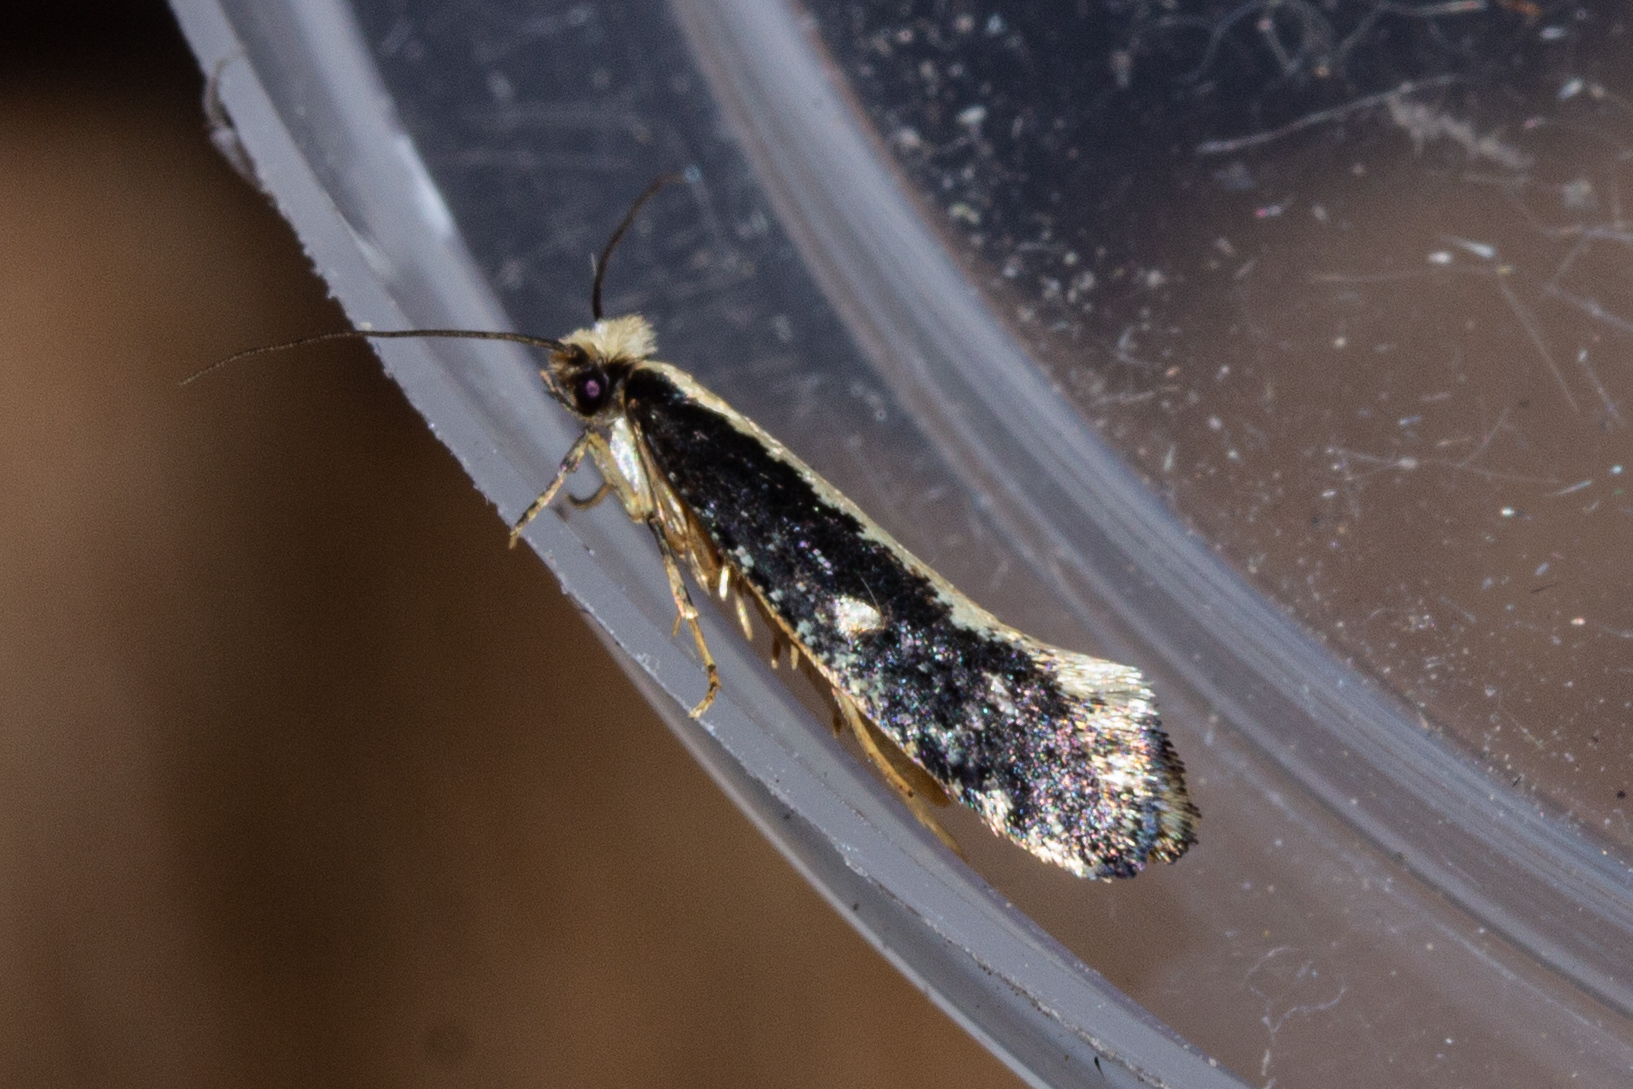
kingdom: Animalia
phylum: Arthropoda
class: Insecta
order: Lepidoptera
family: Tineidae
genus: Monopis
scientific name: Monopis ethelella
